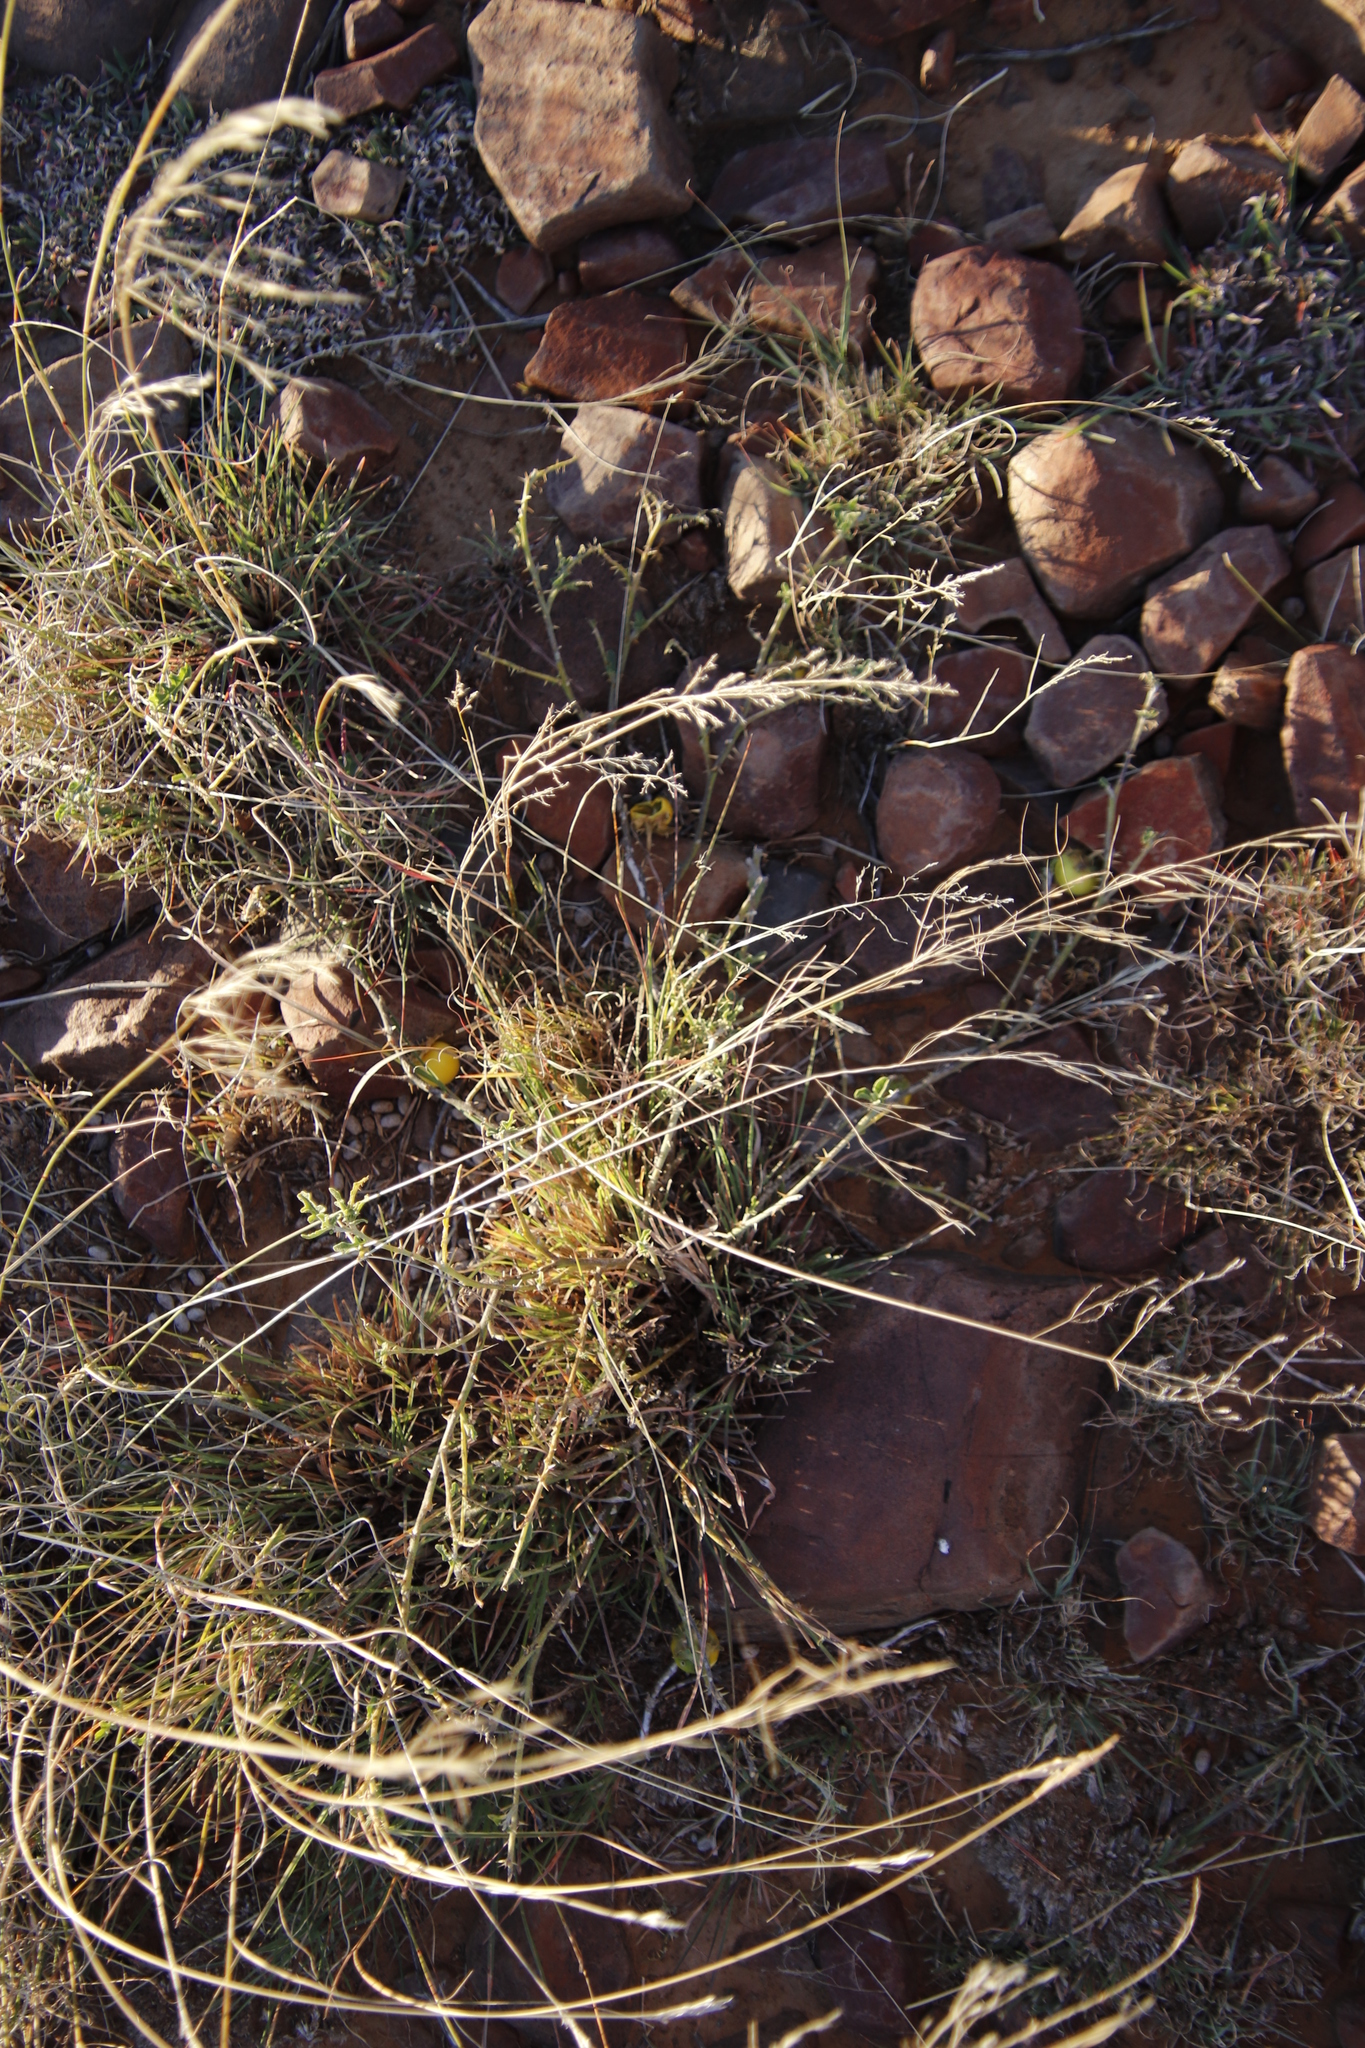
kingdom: Plantae
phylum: Tracheophyta
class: Magnoliopsida
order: Solanales
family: Solanaceae
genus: Solanum
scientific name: Solanum supinum
